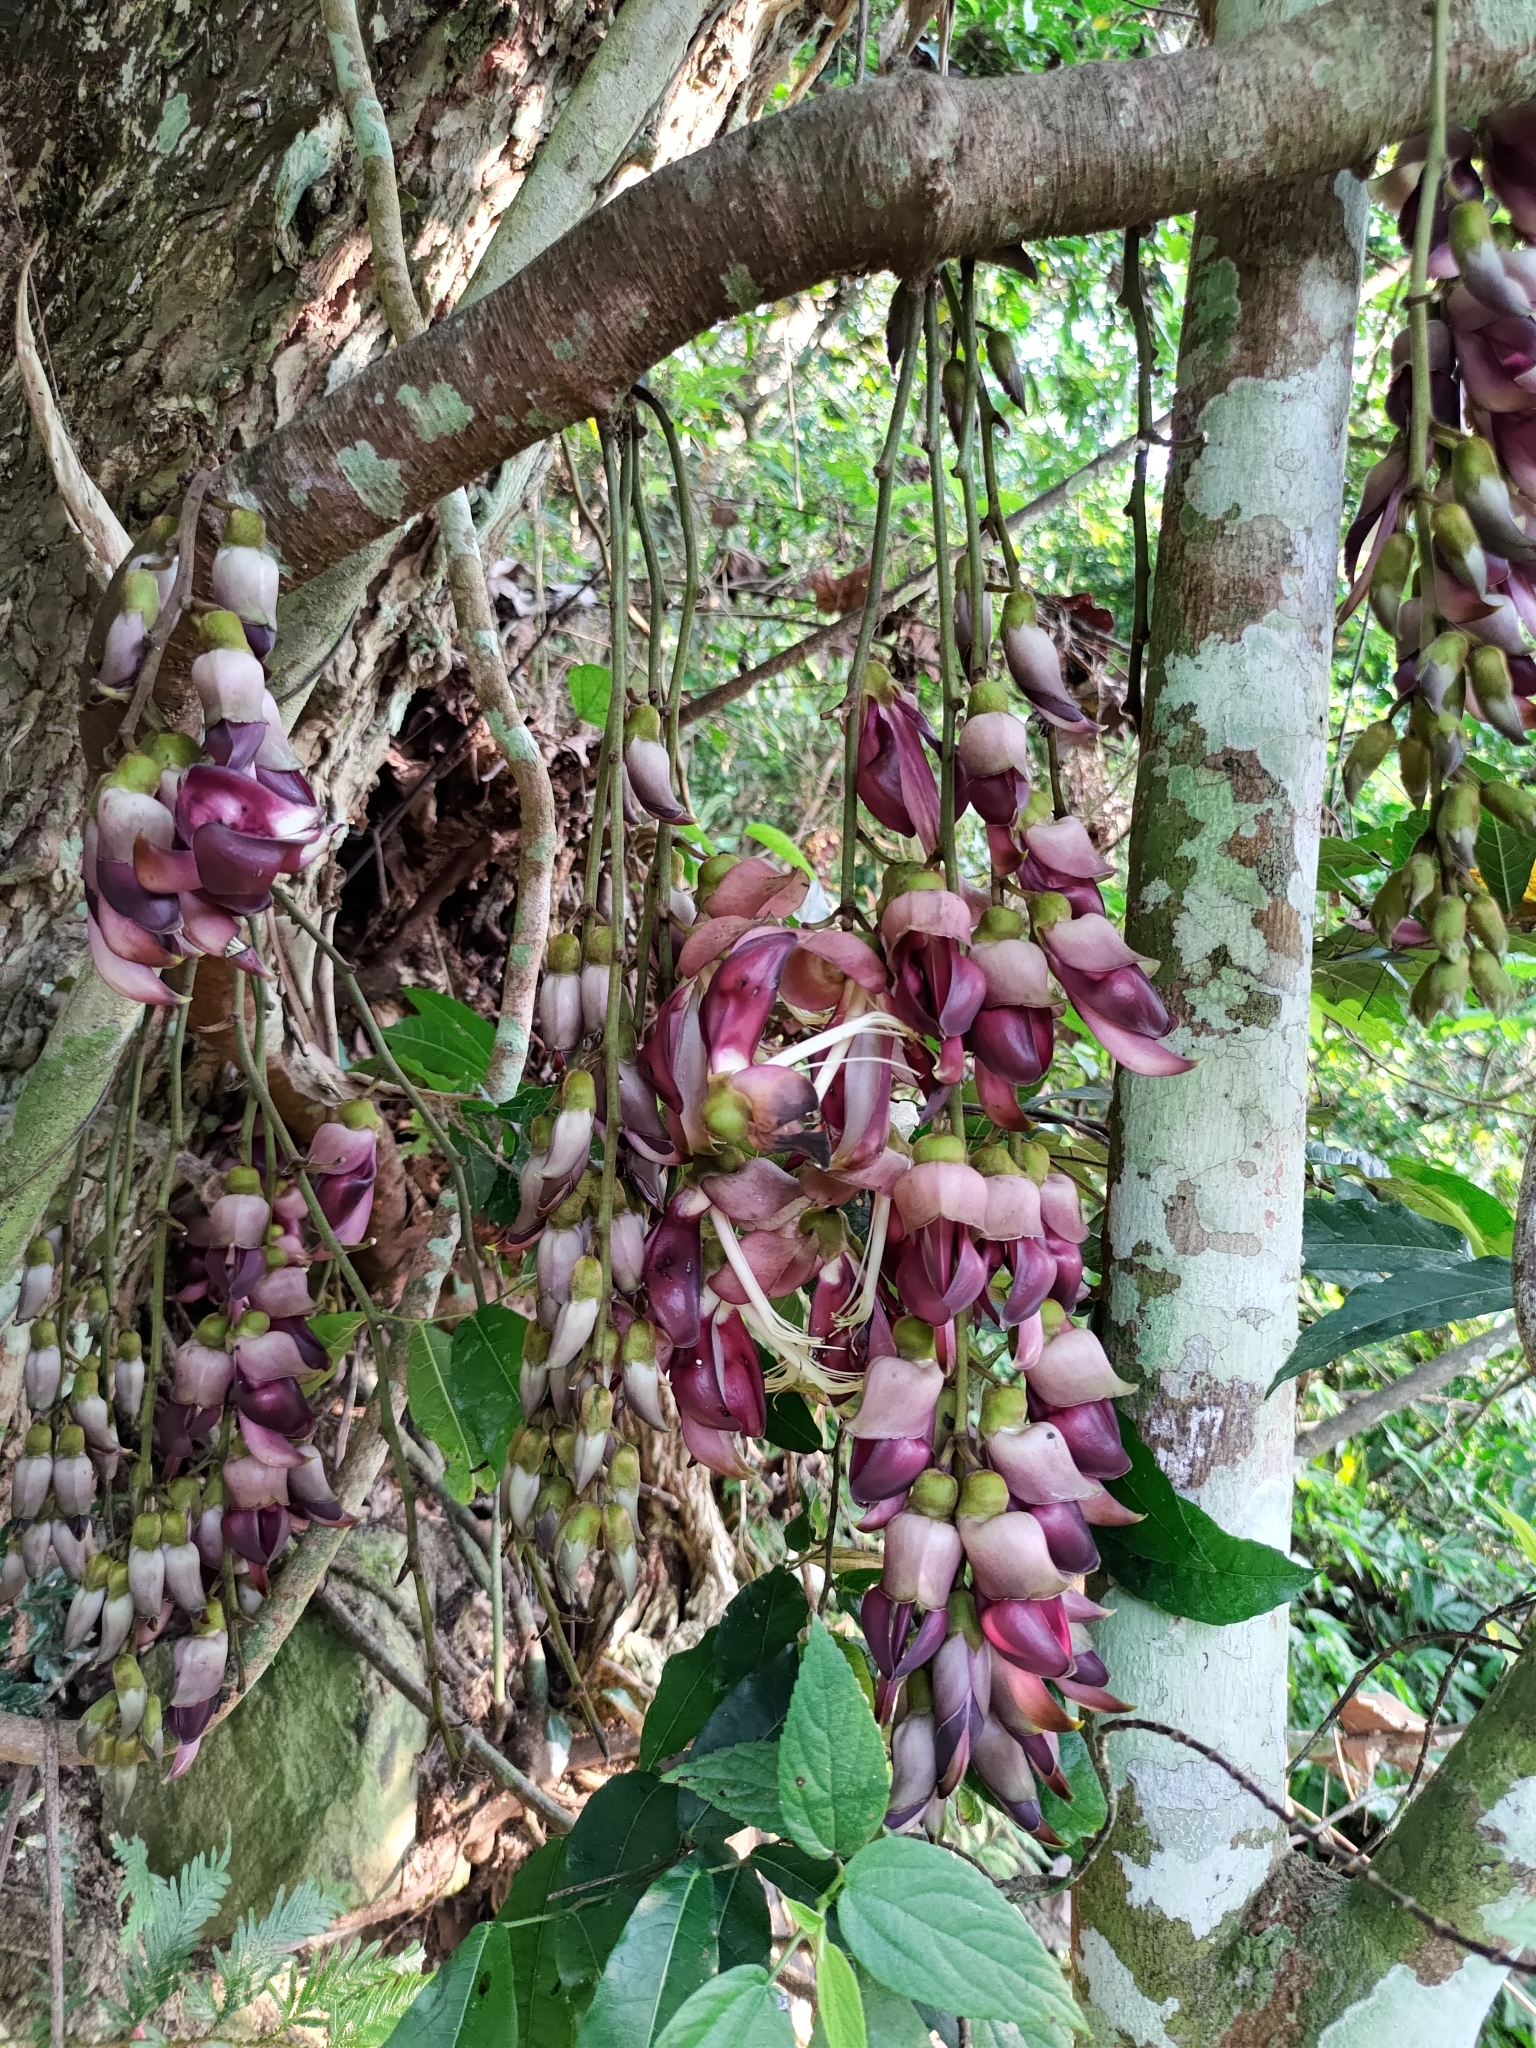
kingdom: Plantae
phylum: Tracheophyta
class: Magnoliopsida
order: Fabales
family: Fabaceae
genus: Mucuna
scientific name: Mucuna macrocarpa
